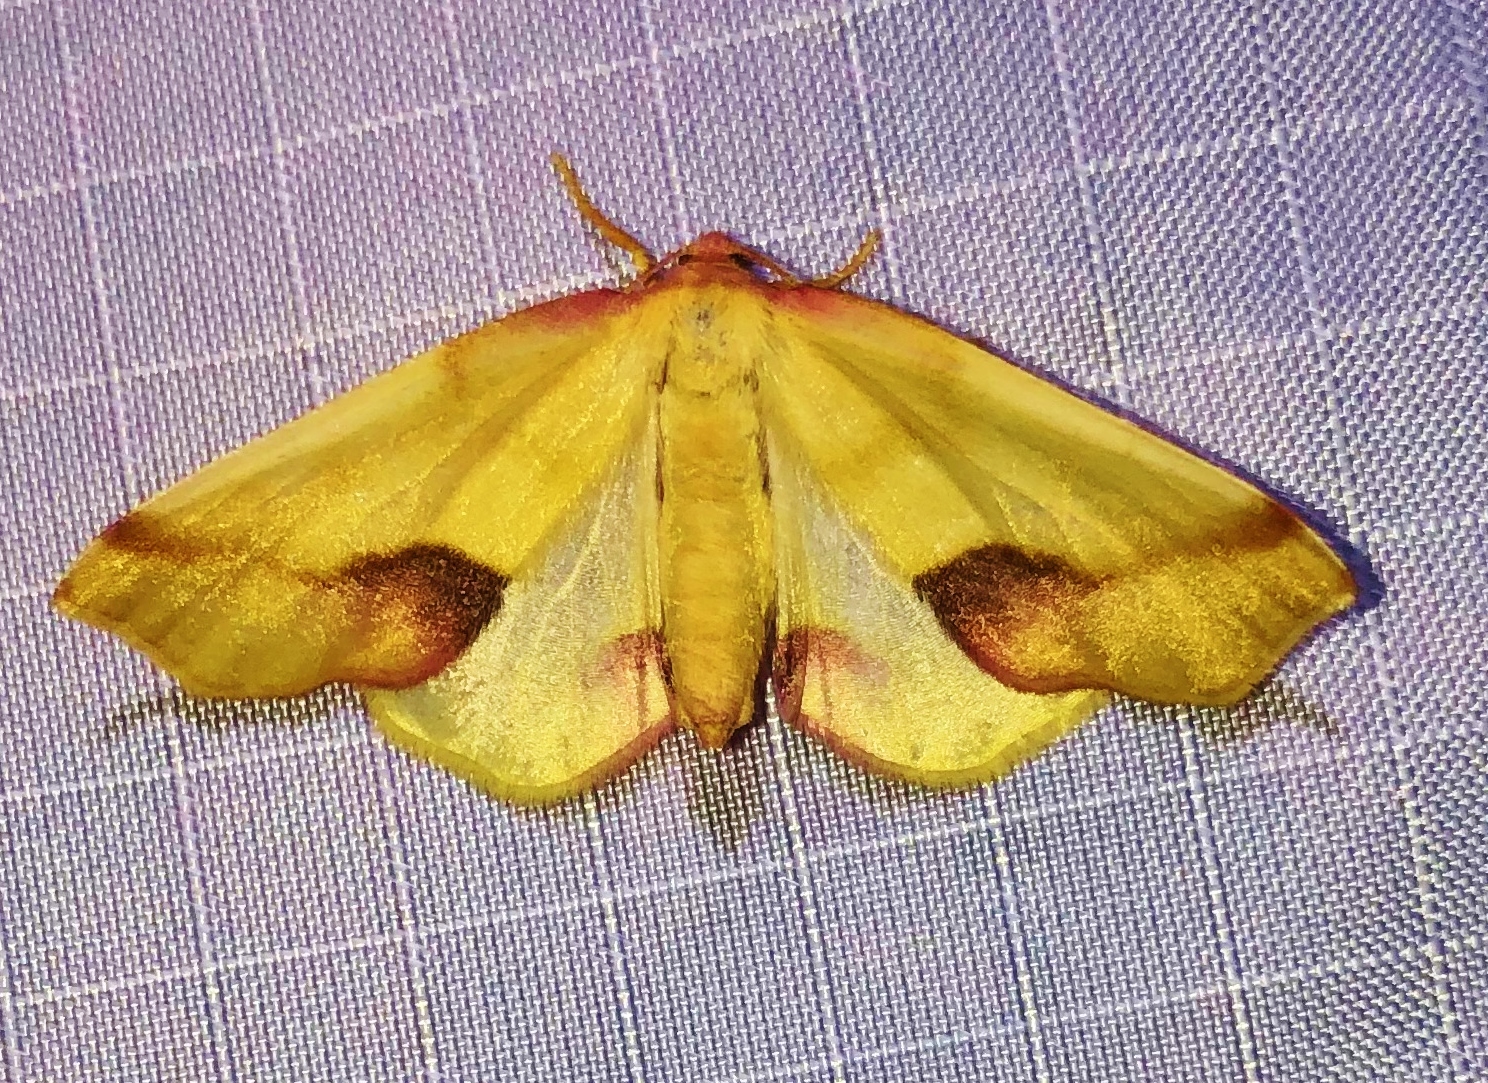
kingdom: Animalia
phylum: Arthropoda
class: Insecta
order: Lepidoptera
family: Geometridae
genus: Plagodis
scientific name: Plagodis serinaria
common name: Lemon plagodis
